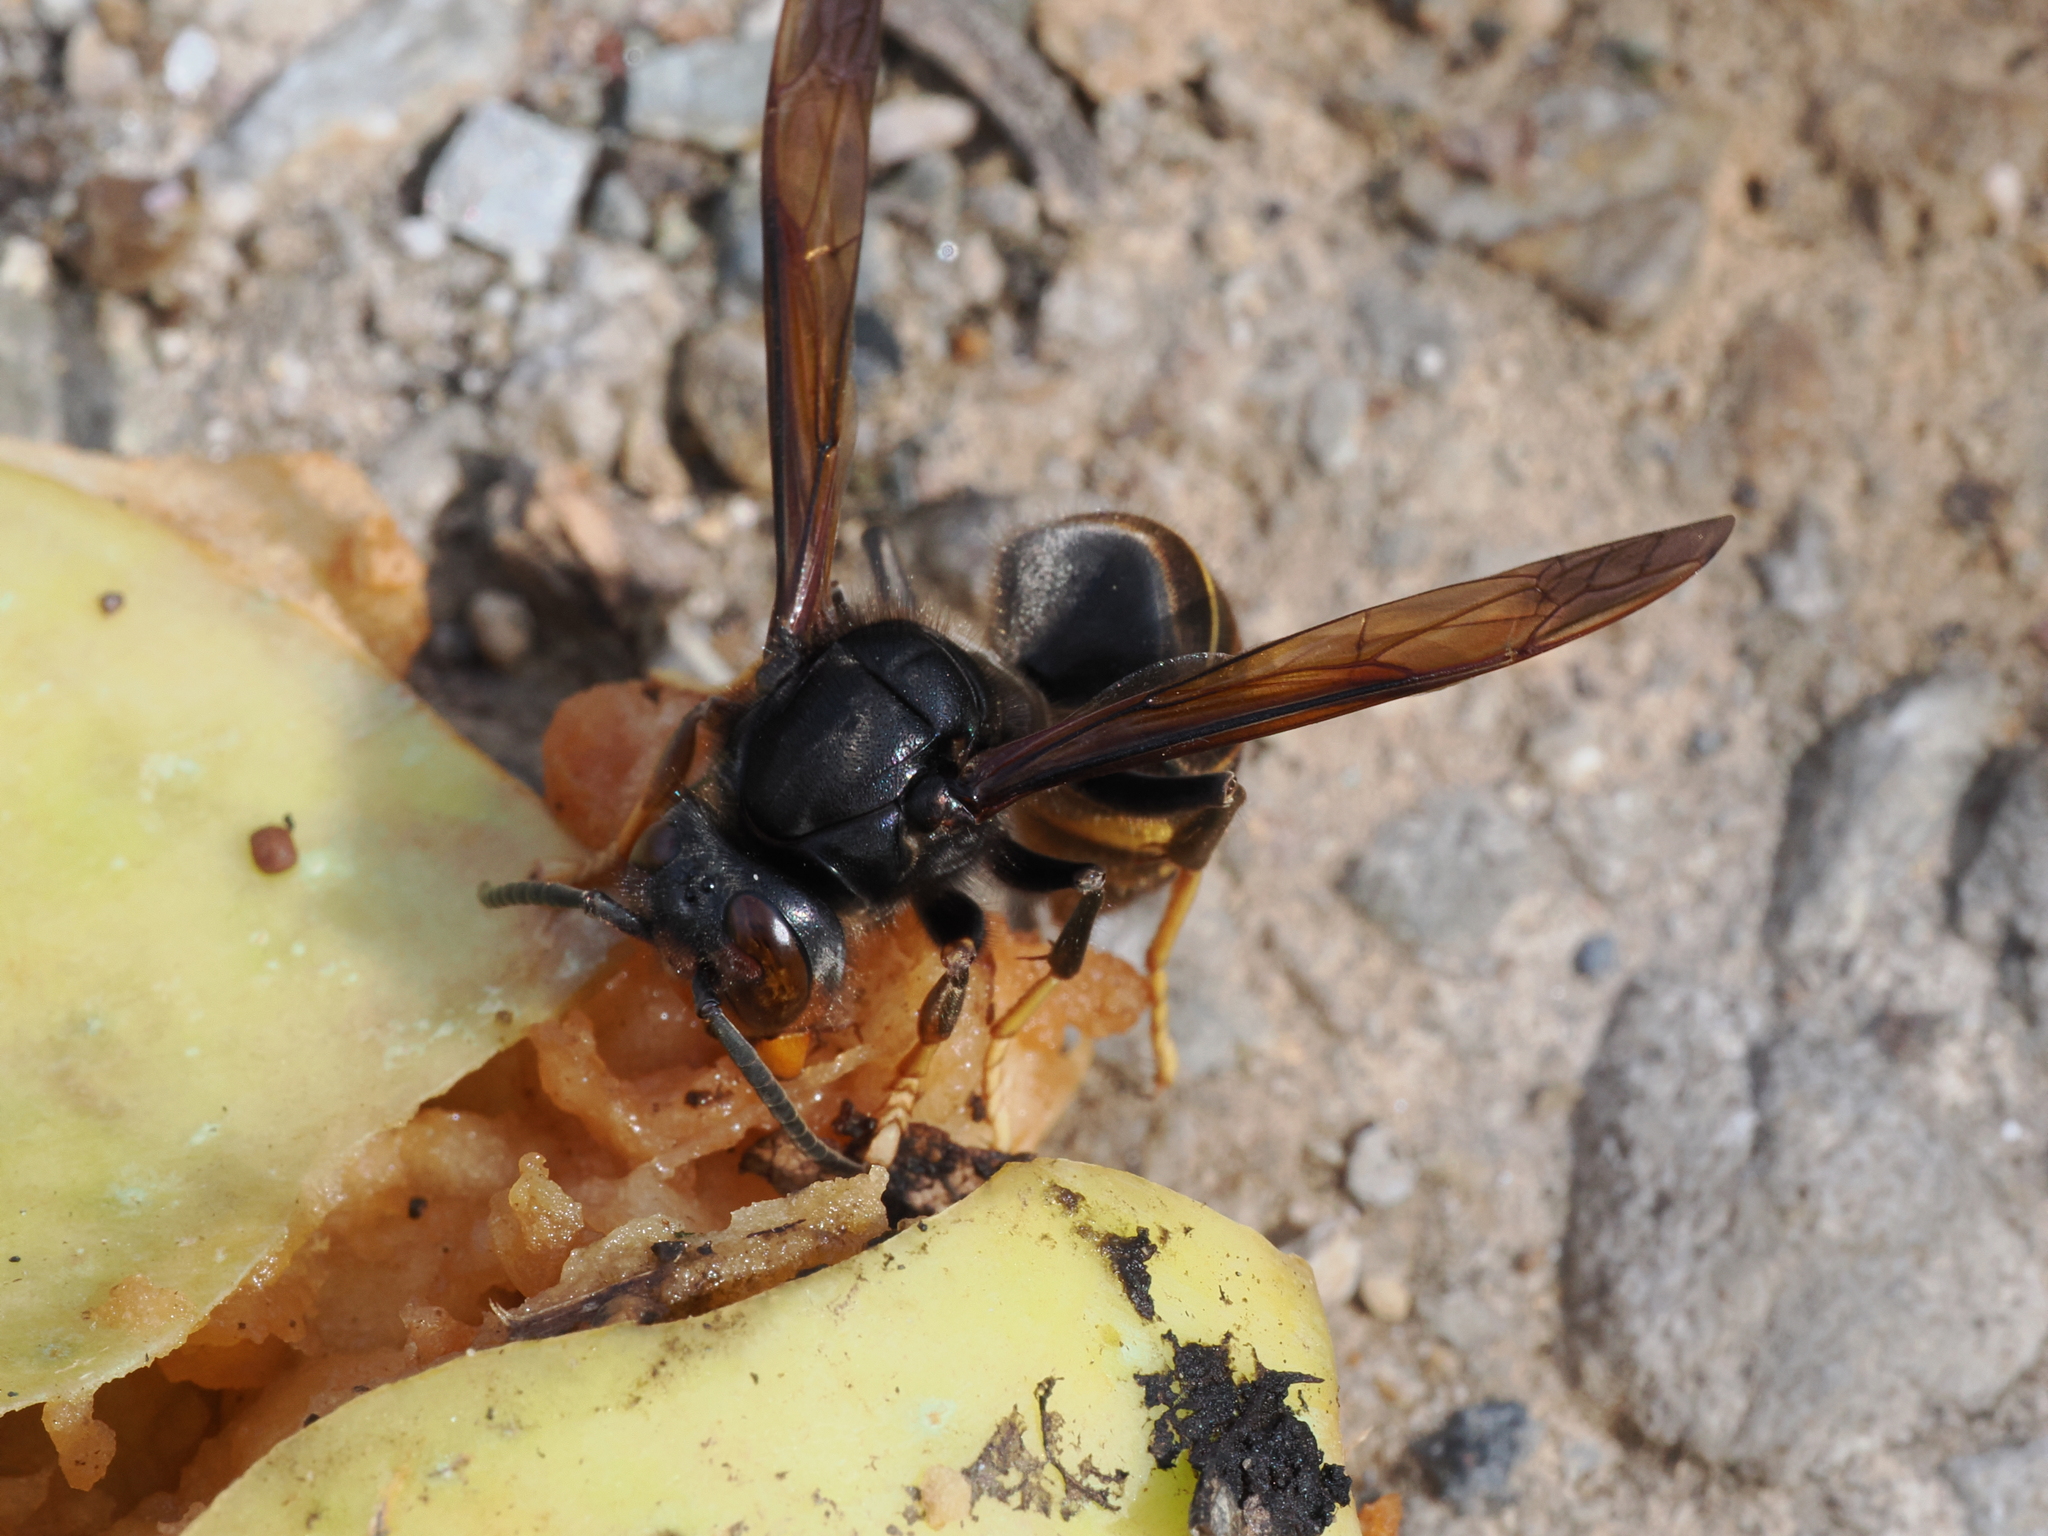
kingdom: Animalia
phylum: Arthropoda
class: Insecta
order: Hymenoptera
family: Vespidae
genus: Vespa
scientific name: Vespa velutina
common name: Asian hornet
